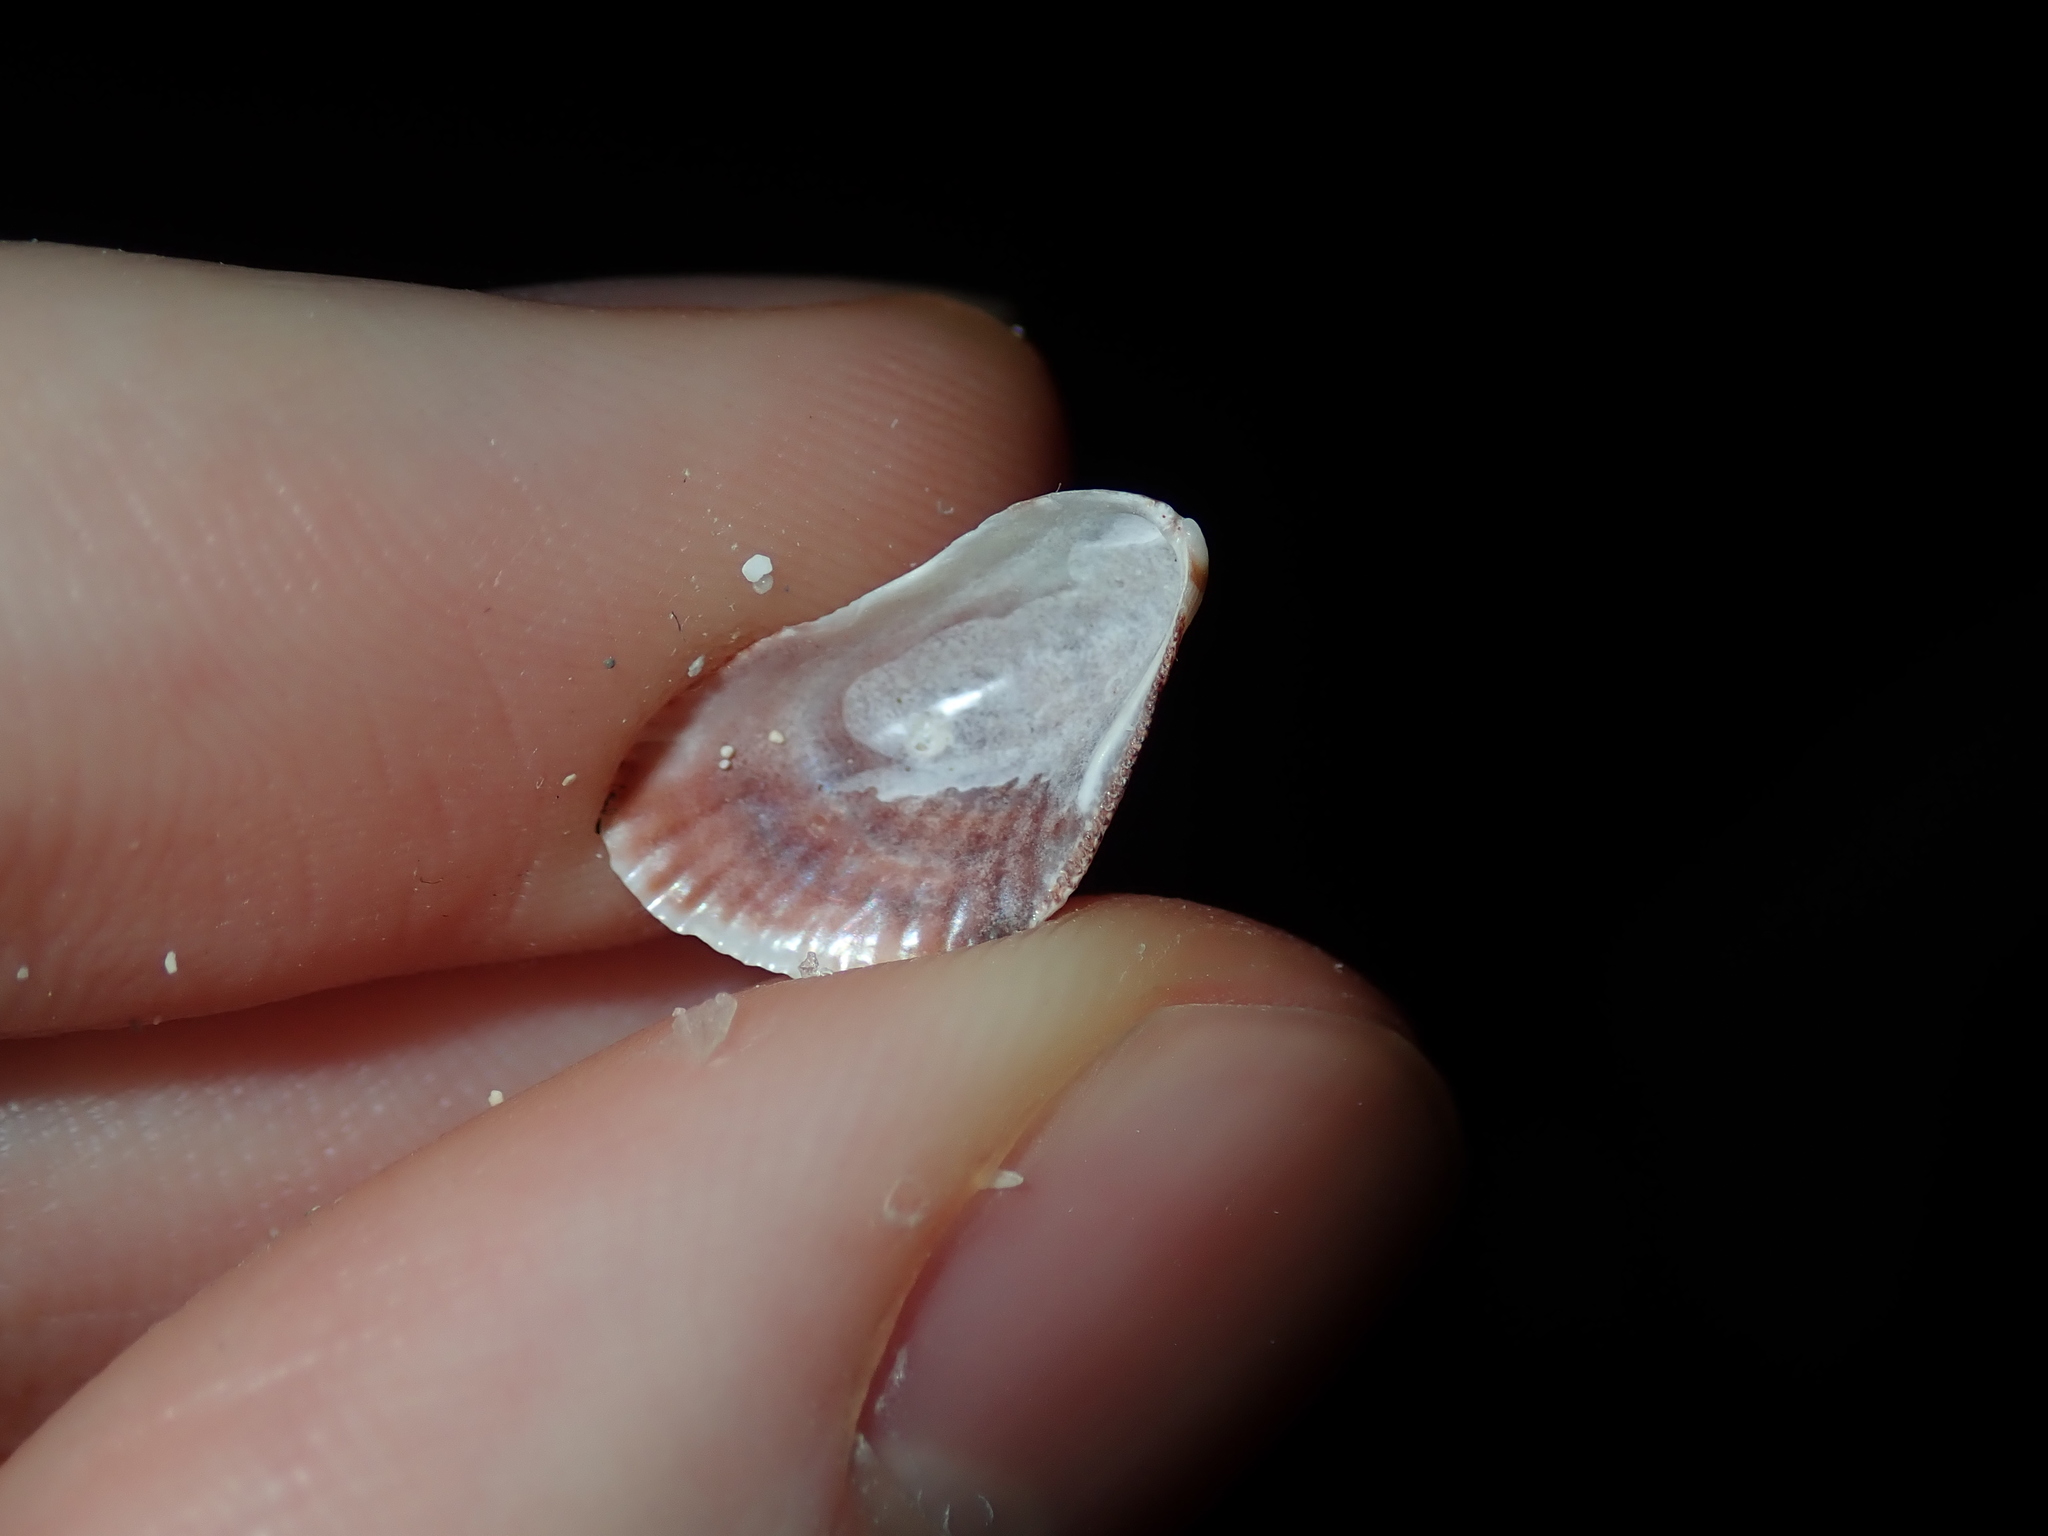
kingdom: Animalia
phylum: Mollusca
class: Bivalvia
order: Mytilida
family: Mytilidae
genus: Brachidontes
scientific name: Brachidontes erosus
